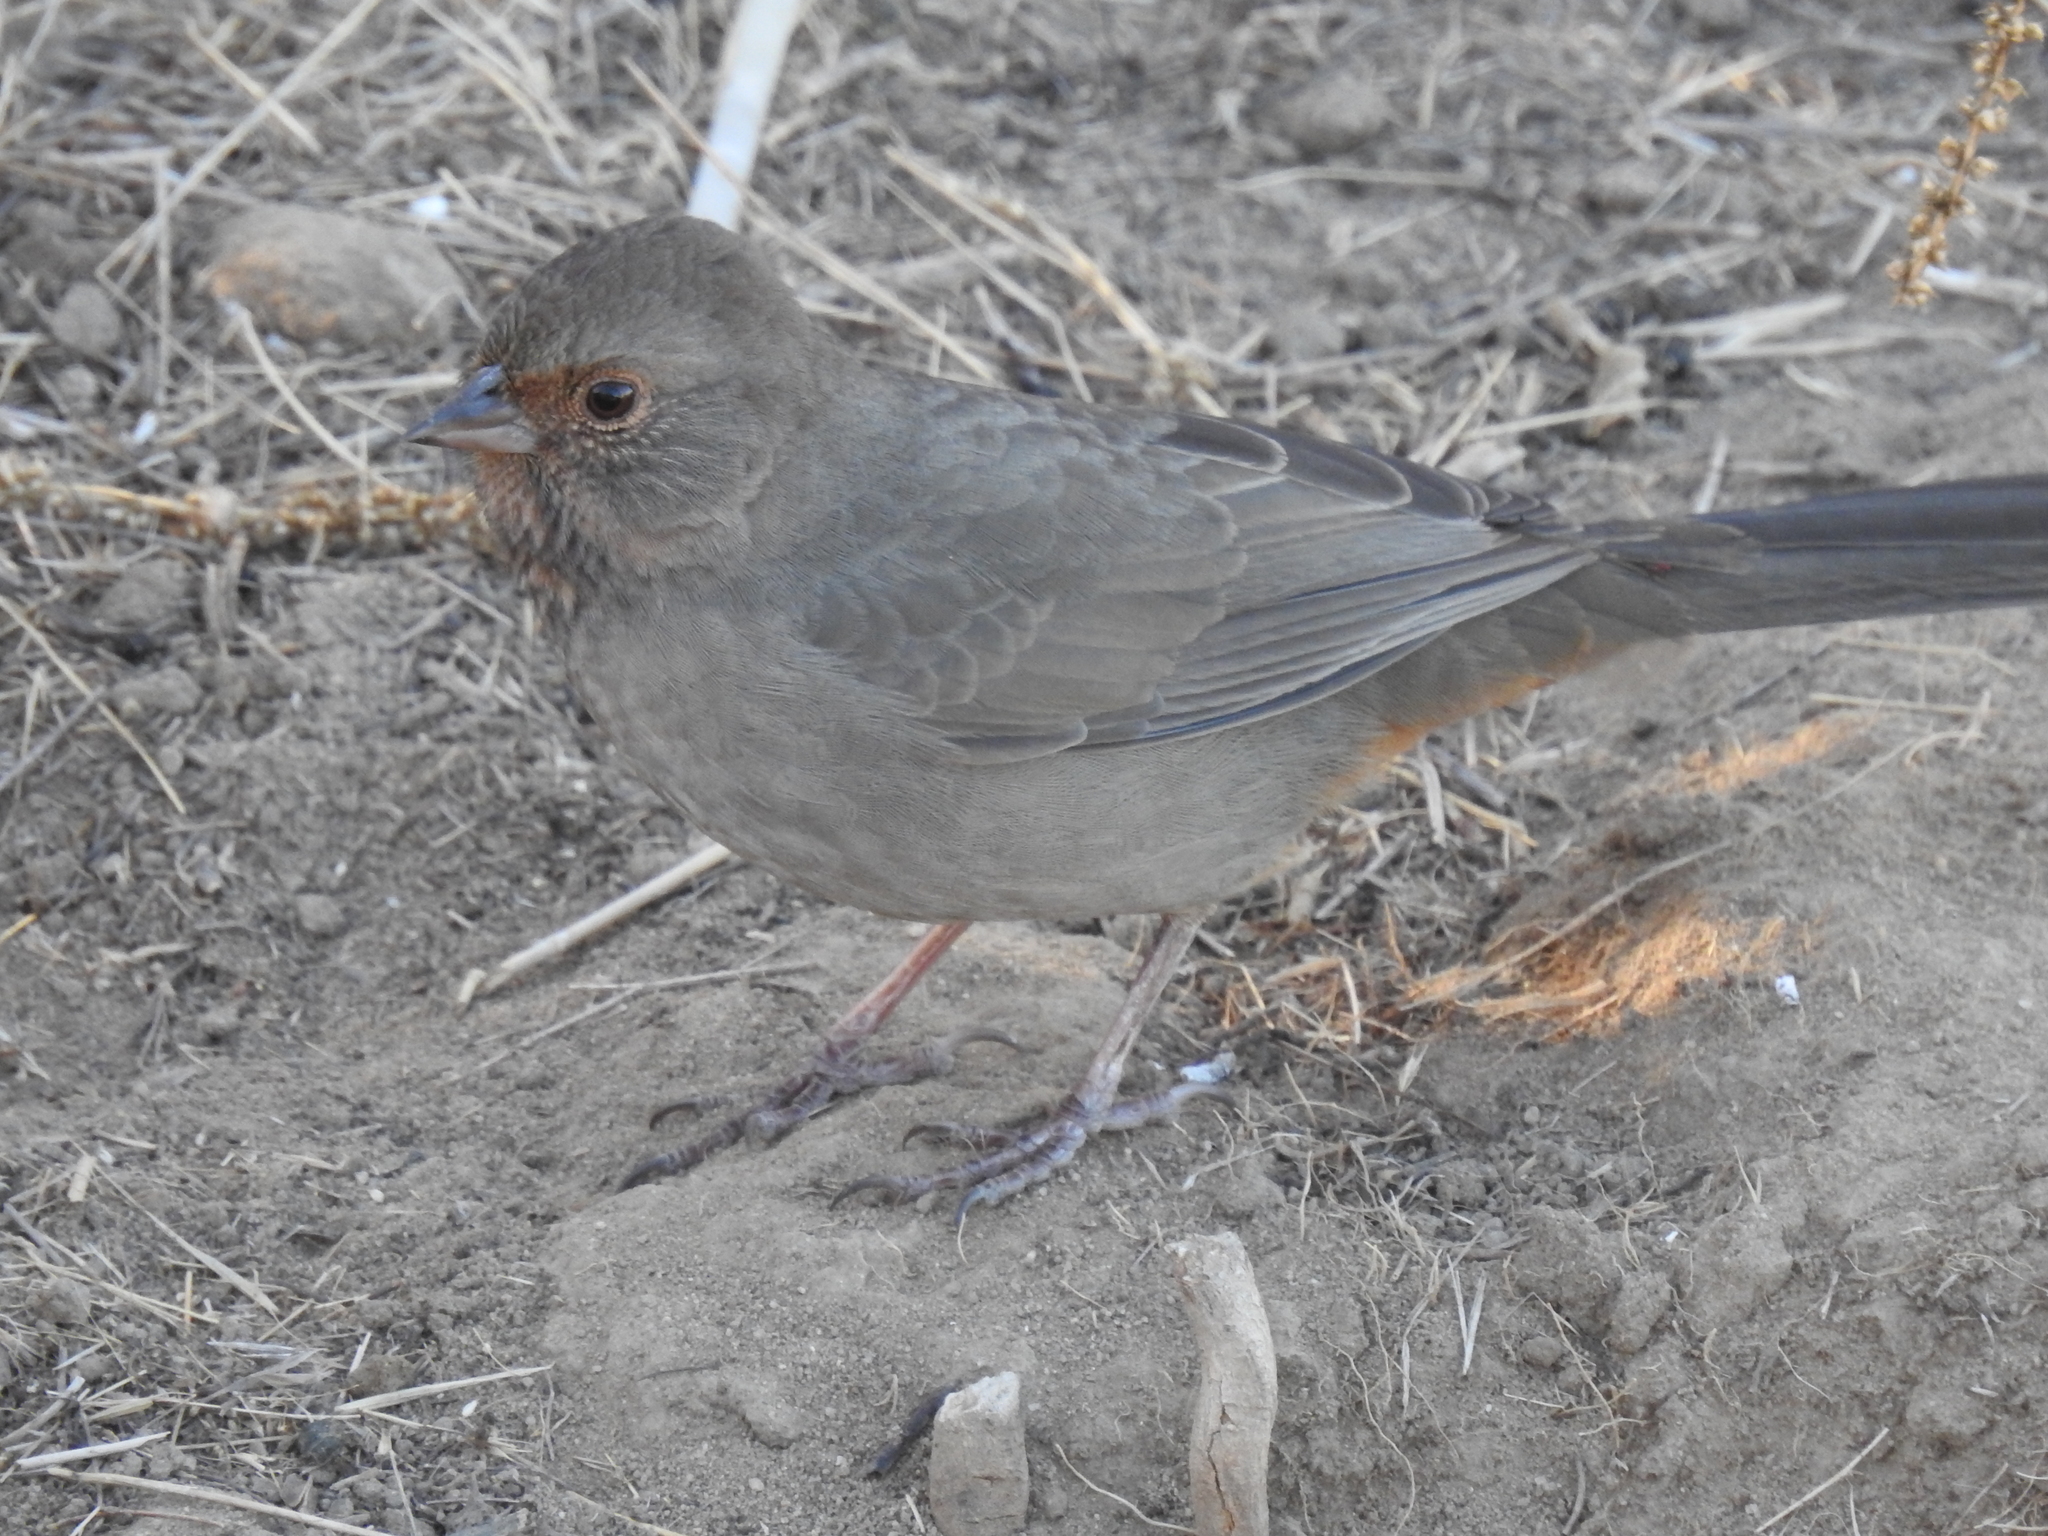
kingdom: Animalia
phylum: Chordata
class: Aves
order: Passeriformes
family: Passerellidae
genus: Melozone
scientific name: Melozone crissalis
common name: California towhee
